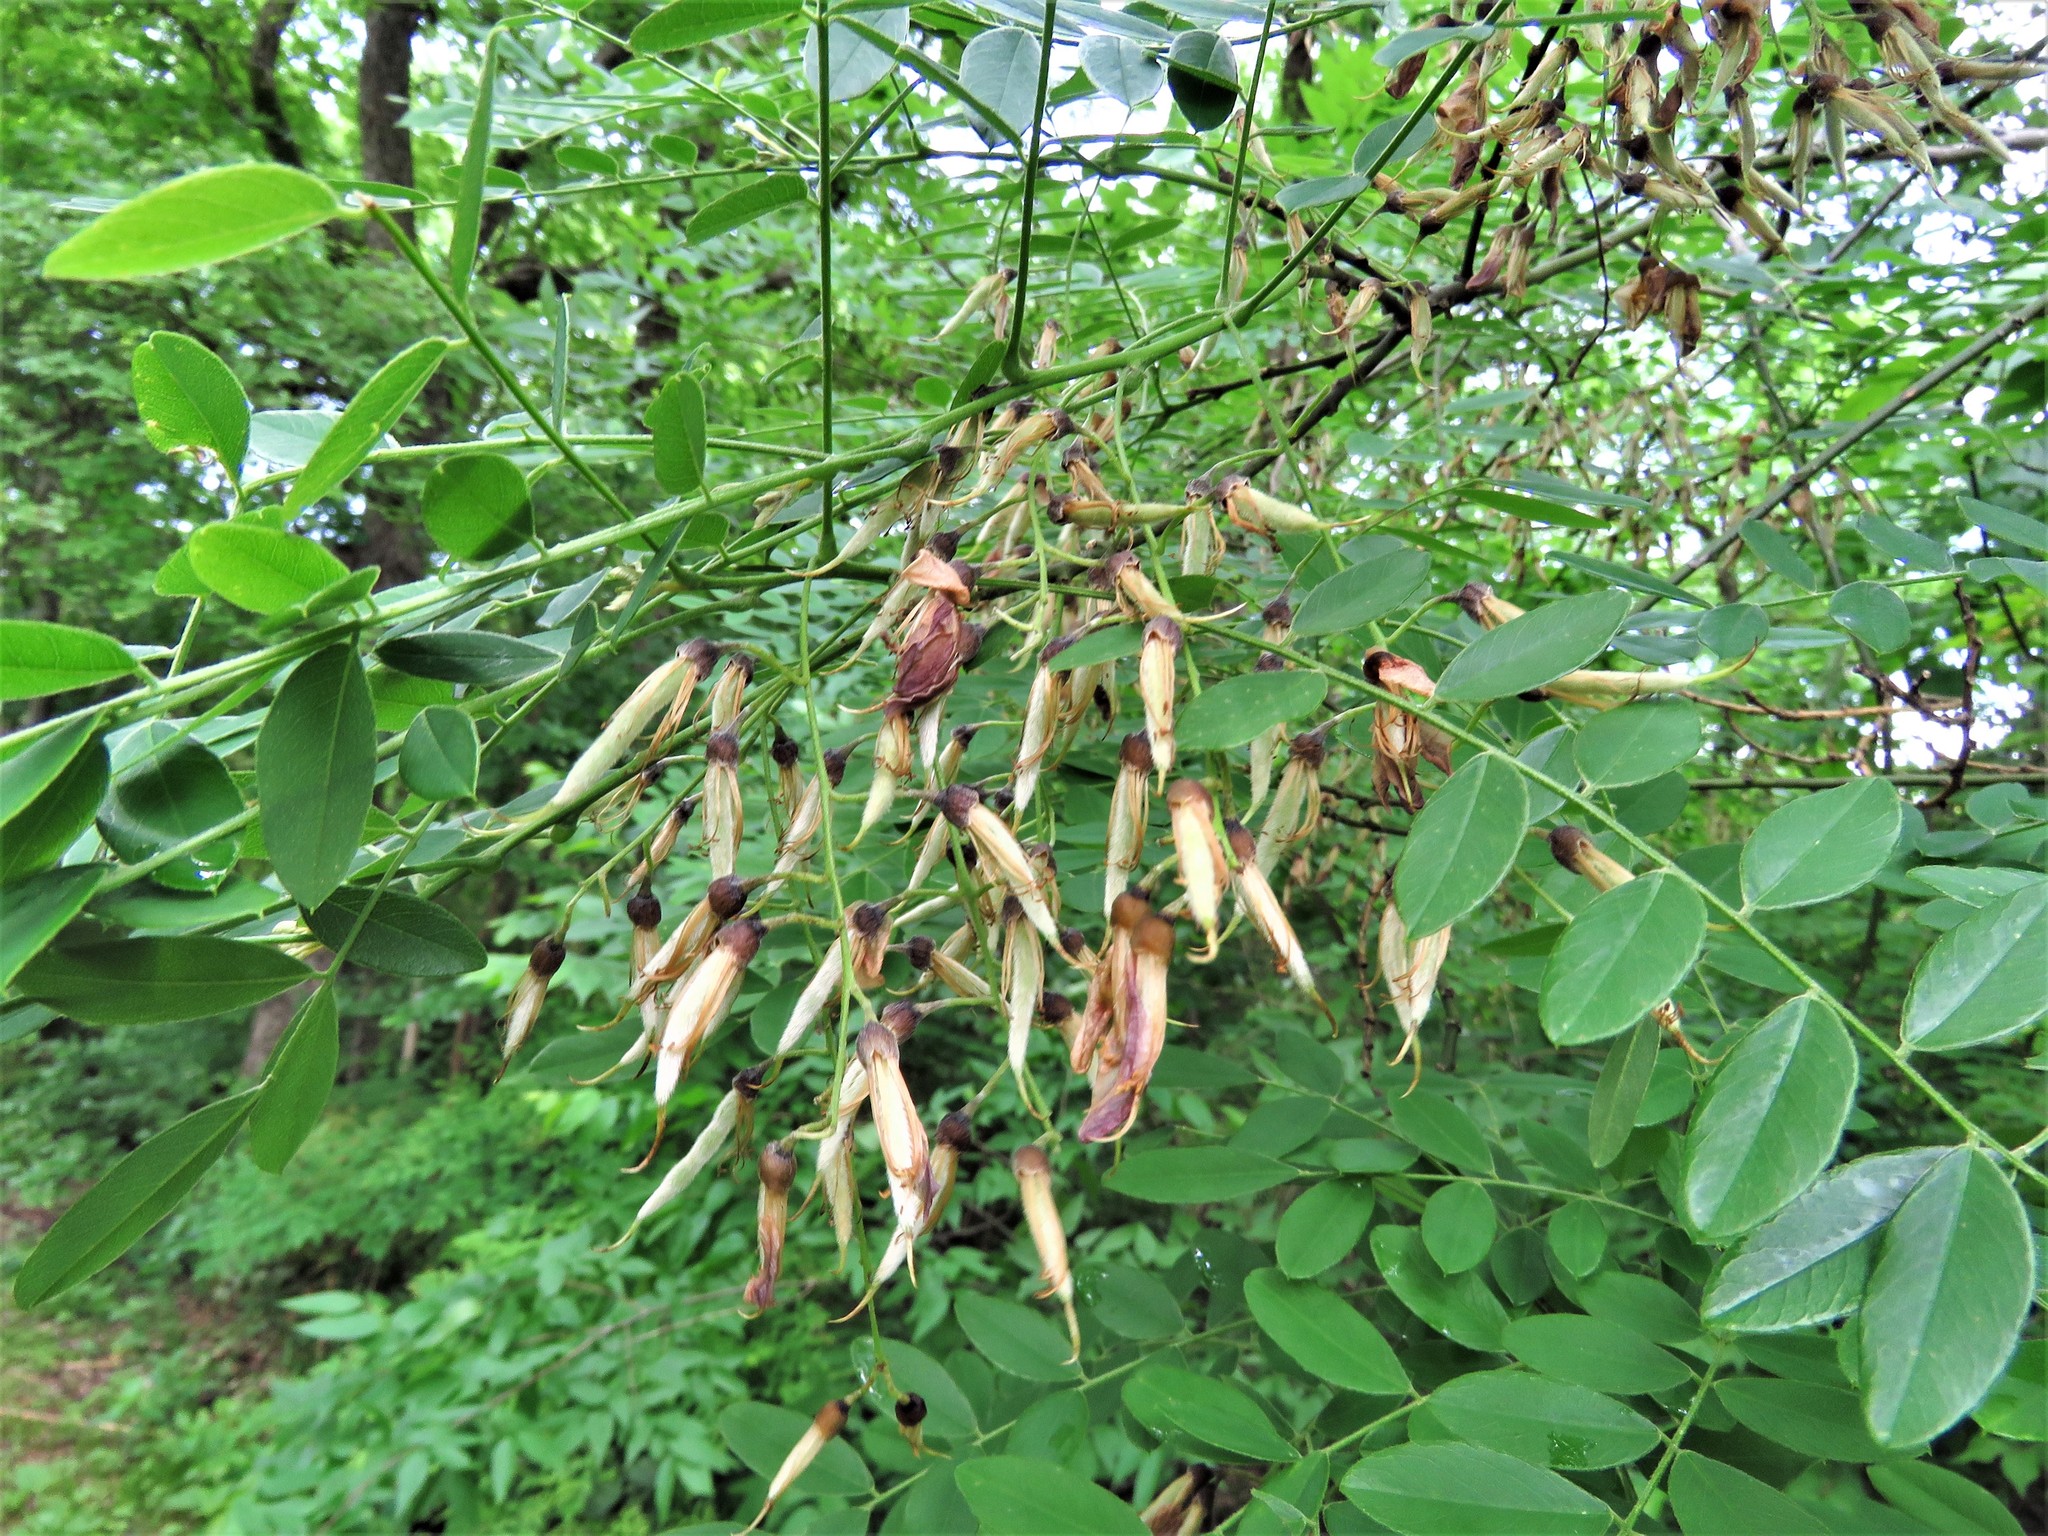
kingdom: Plantae
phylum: Tracheophyta
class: Magnoliopsida
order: Fabales
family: Fabaceae
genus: Styphnolobium
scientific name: Styphnolobium affine
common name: Texas sophora
